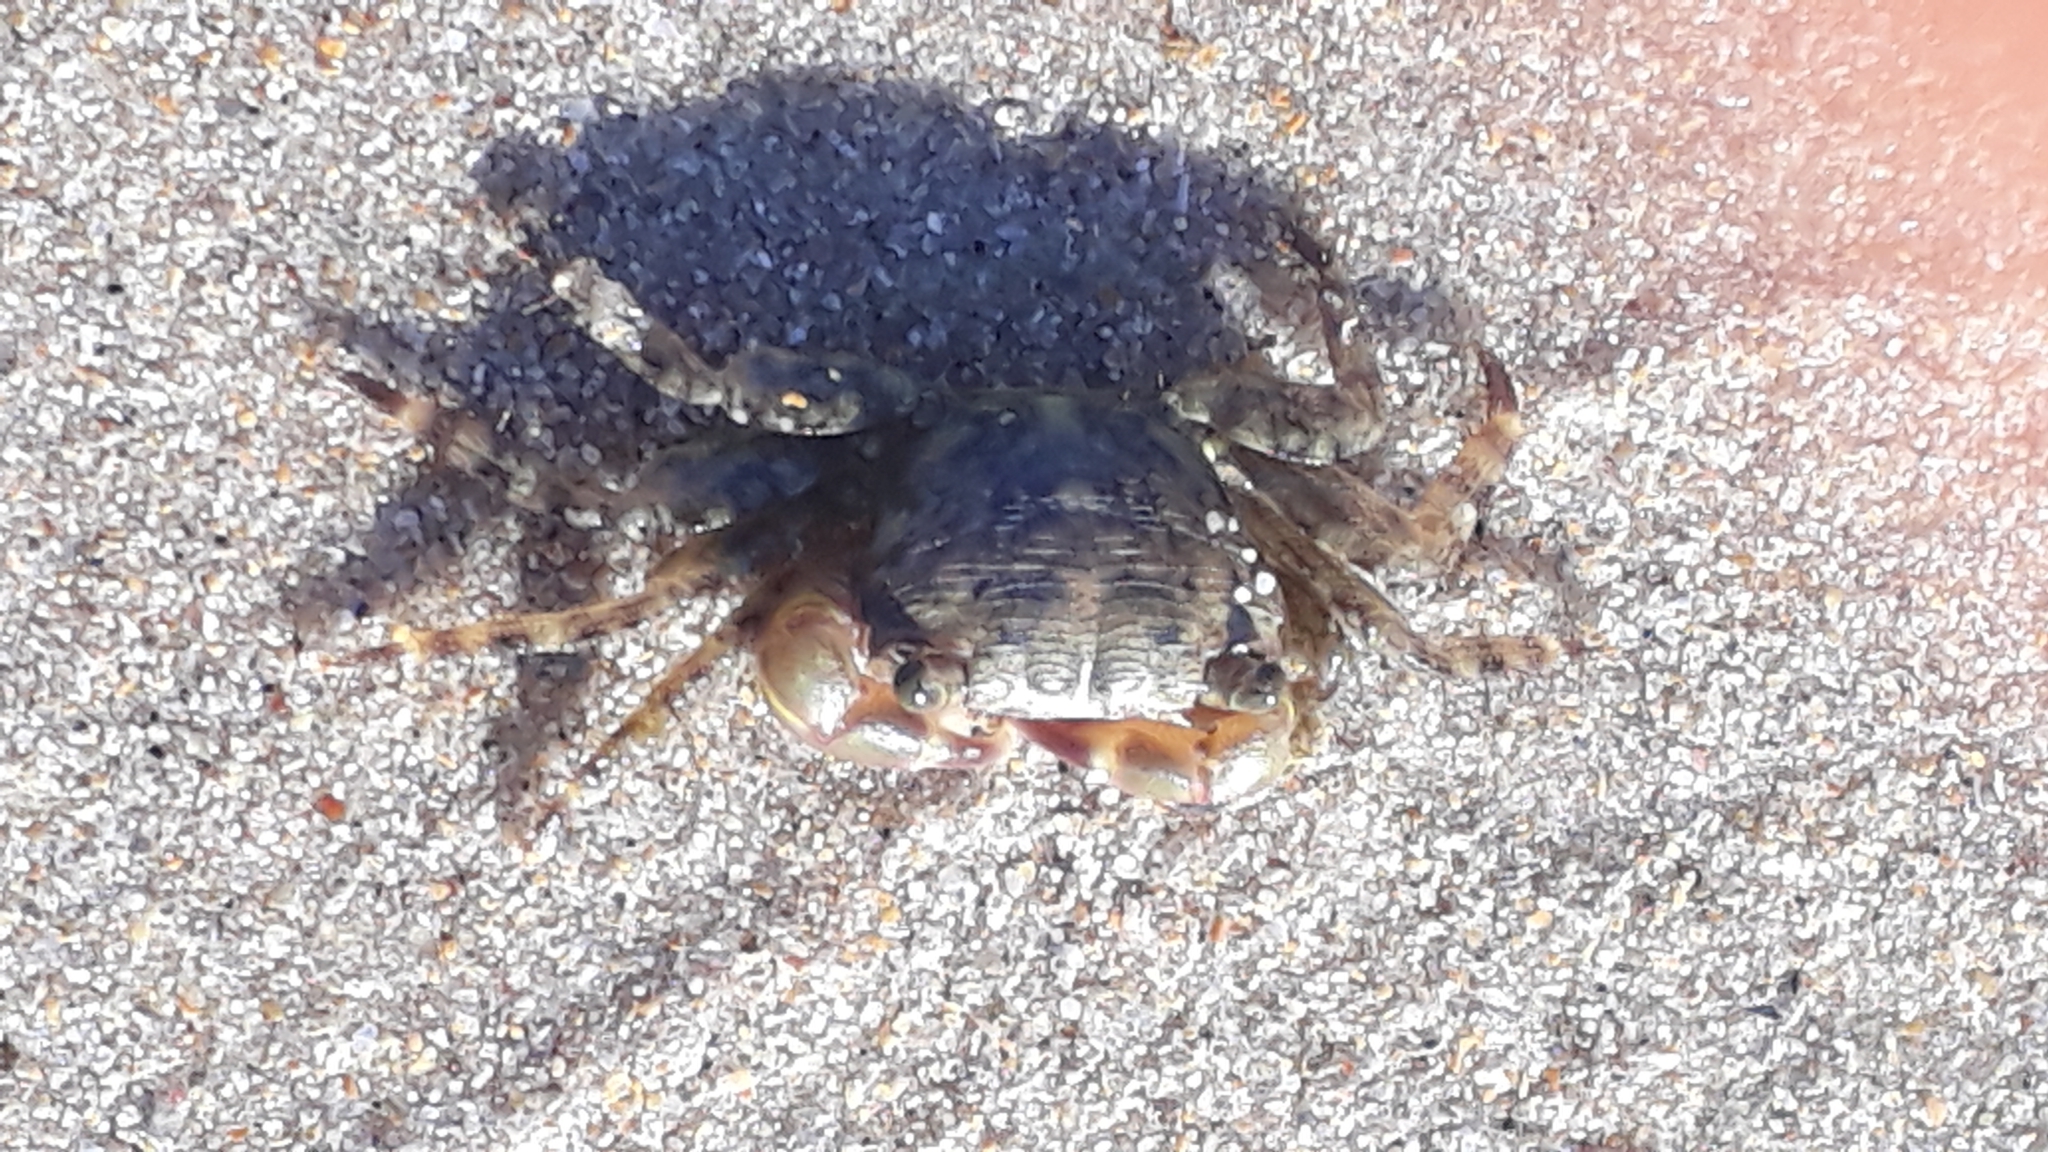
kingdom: Animalia
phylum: Arthropoda
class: Malacostraca
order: Decapoda
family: Grapsidae
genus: Pachygrapsus
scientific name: Pachygrapsus transversus
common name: Mottled shore crab
